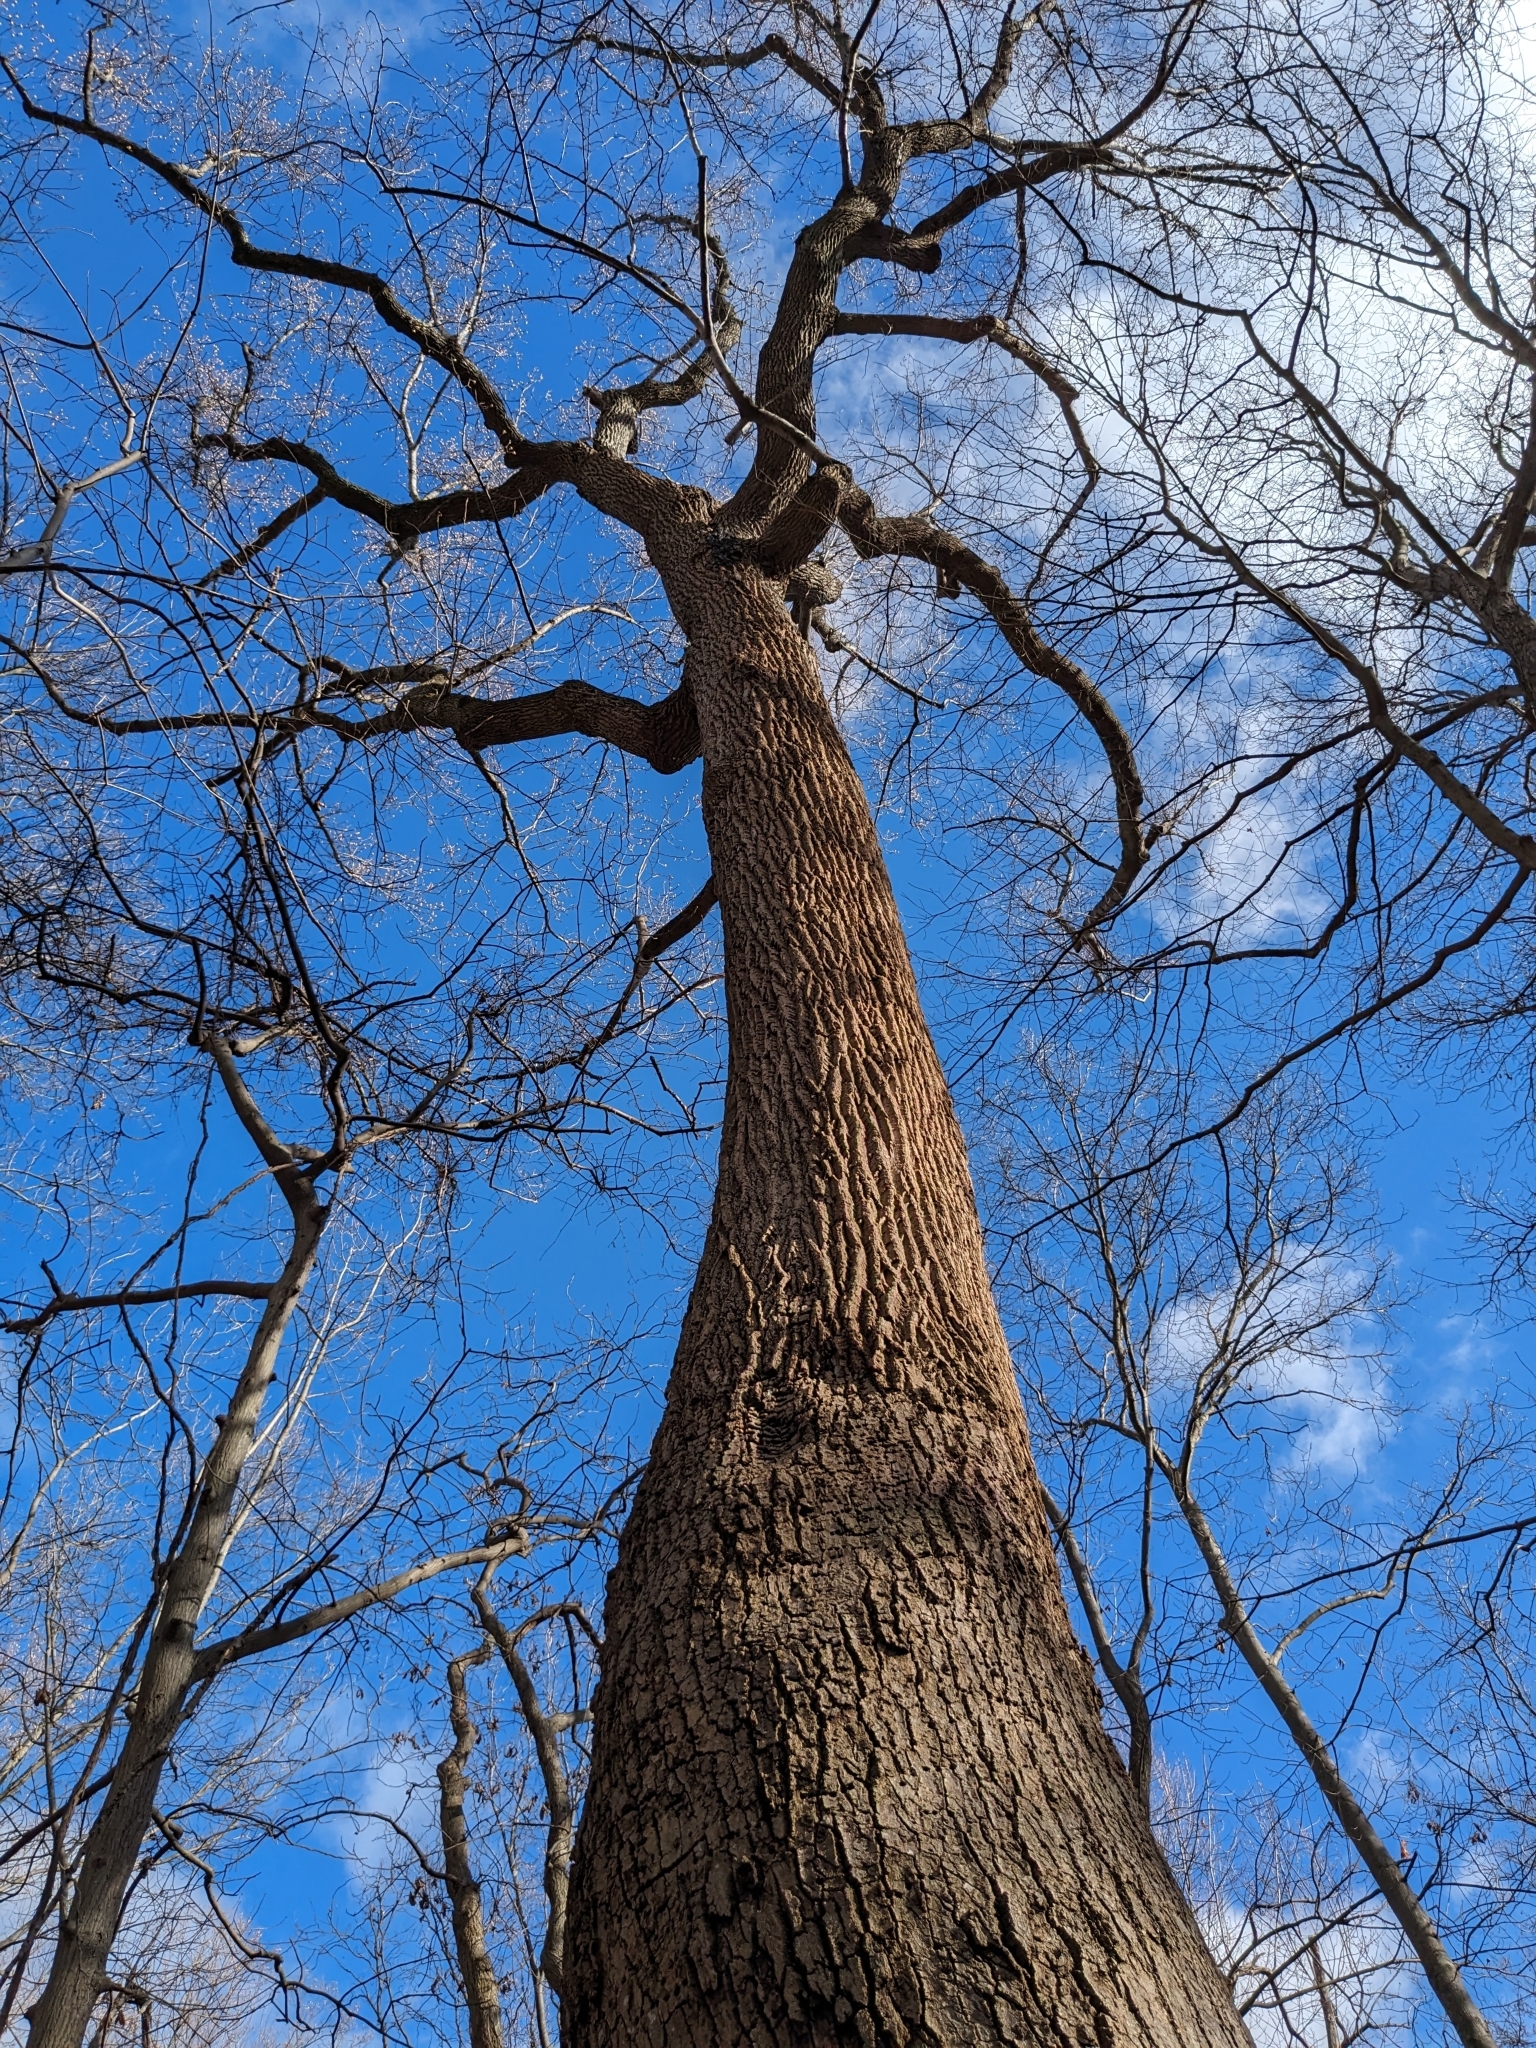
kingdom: Plantae
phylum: Tracheophyta
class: Magnoliopsida
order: Magnoliales
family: Magnoliaceae
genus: Liriodendron
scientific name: Liriodendron tulipifera
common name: Tulip tree
